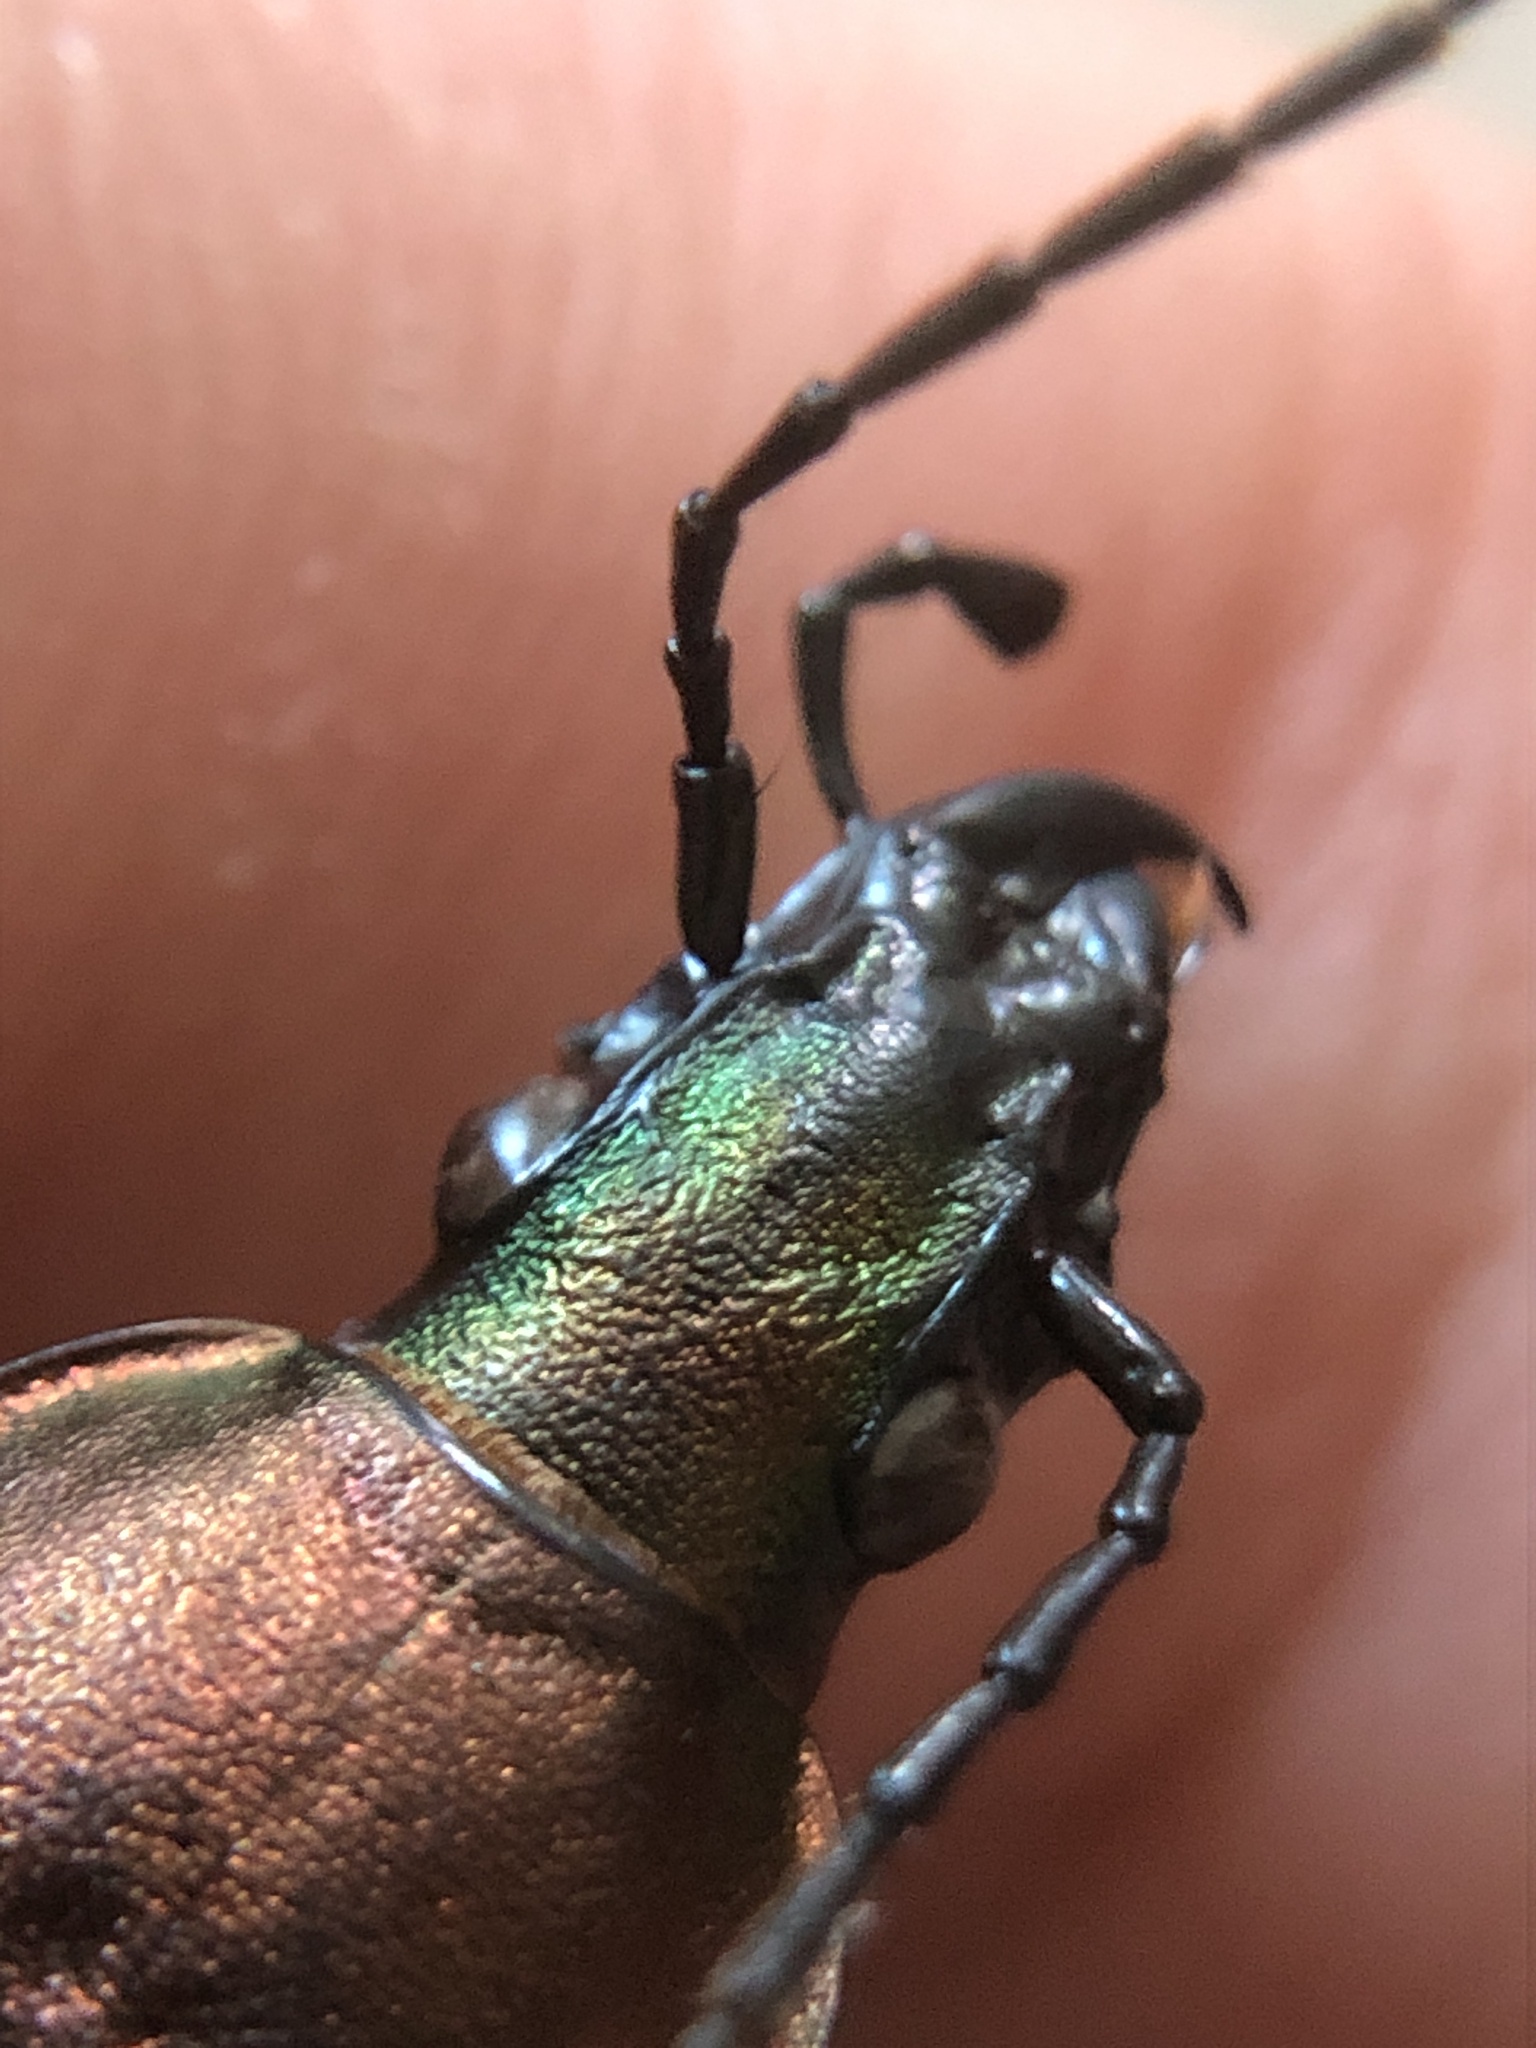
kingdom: Animalia
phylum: Arthropoda
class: Insecta
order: Coleoptera
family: Carabidae
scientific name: Carabidae
